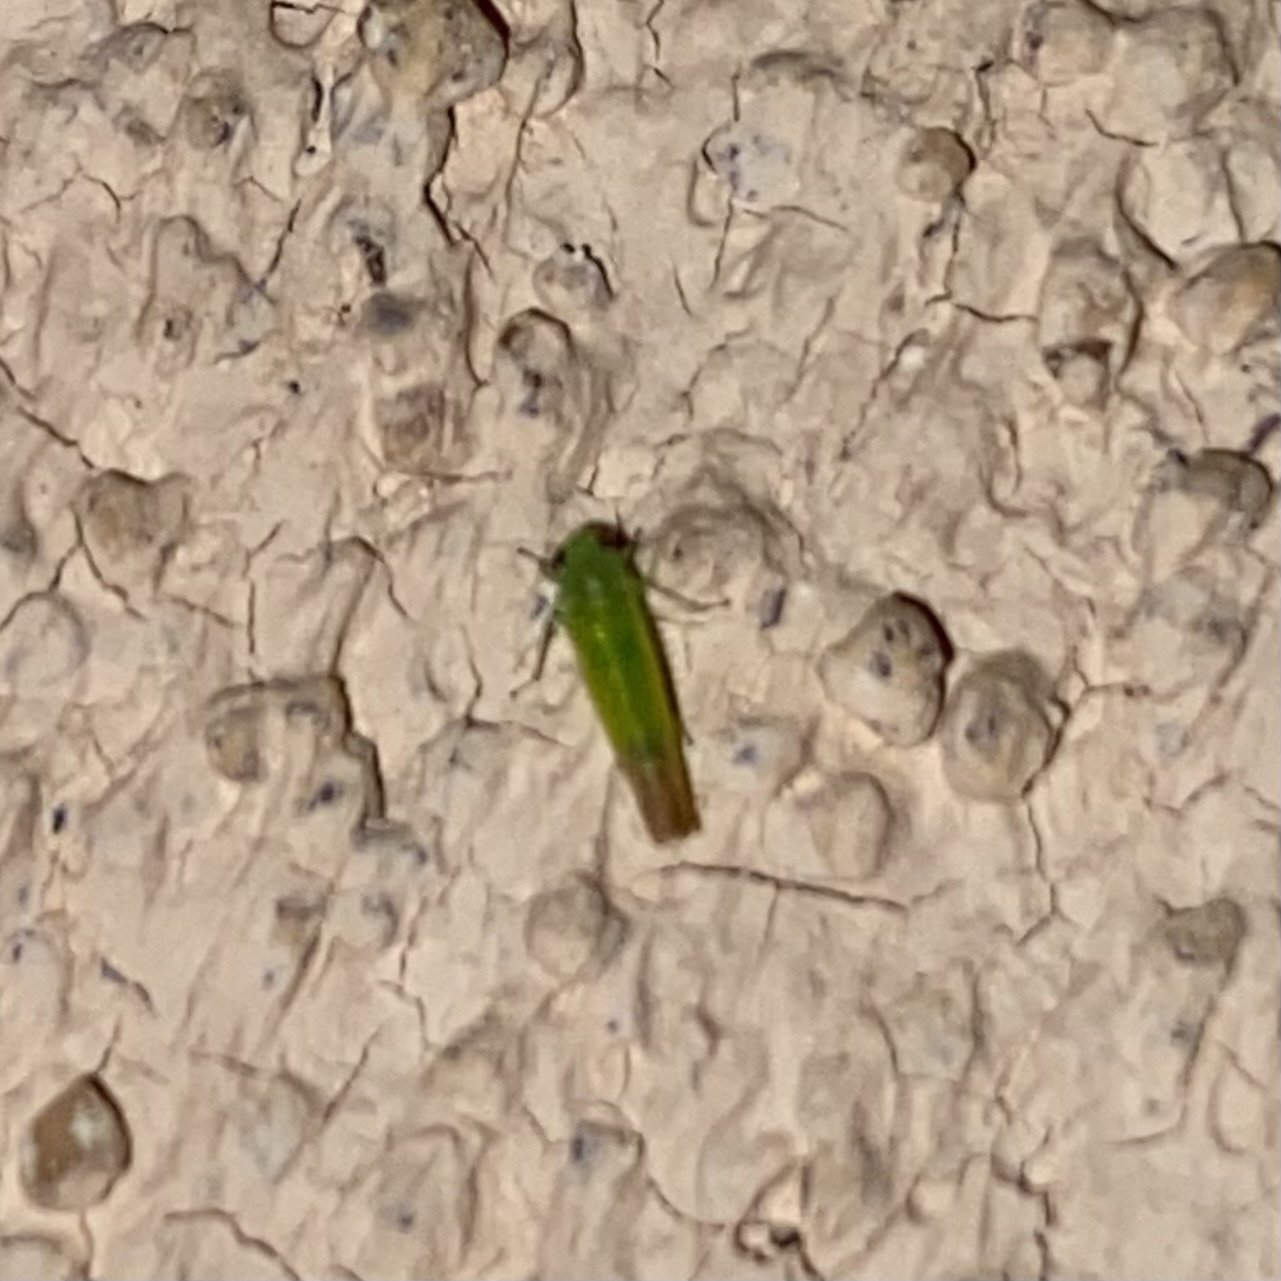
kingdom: Animalia
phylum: Arthropoda
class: Insecta
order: Hemiptera
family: Cicadellidae
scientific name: Cicadellidae
